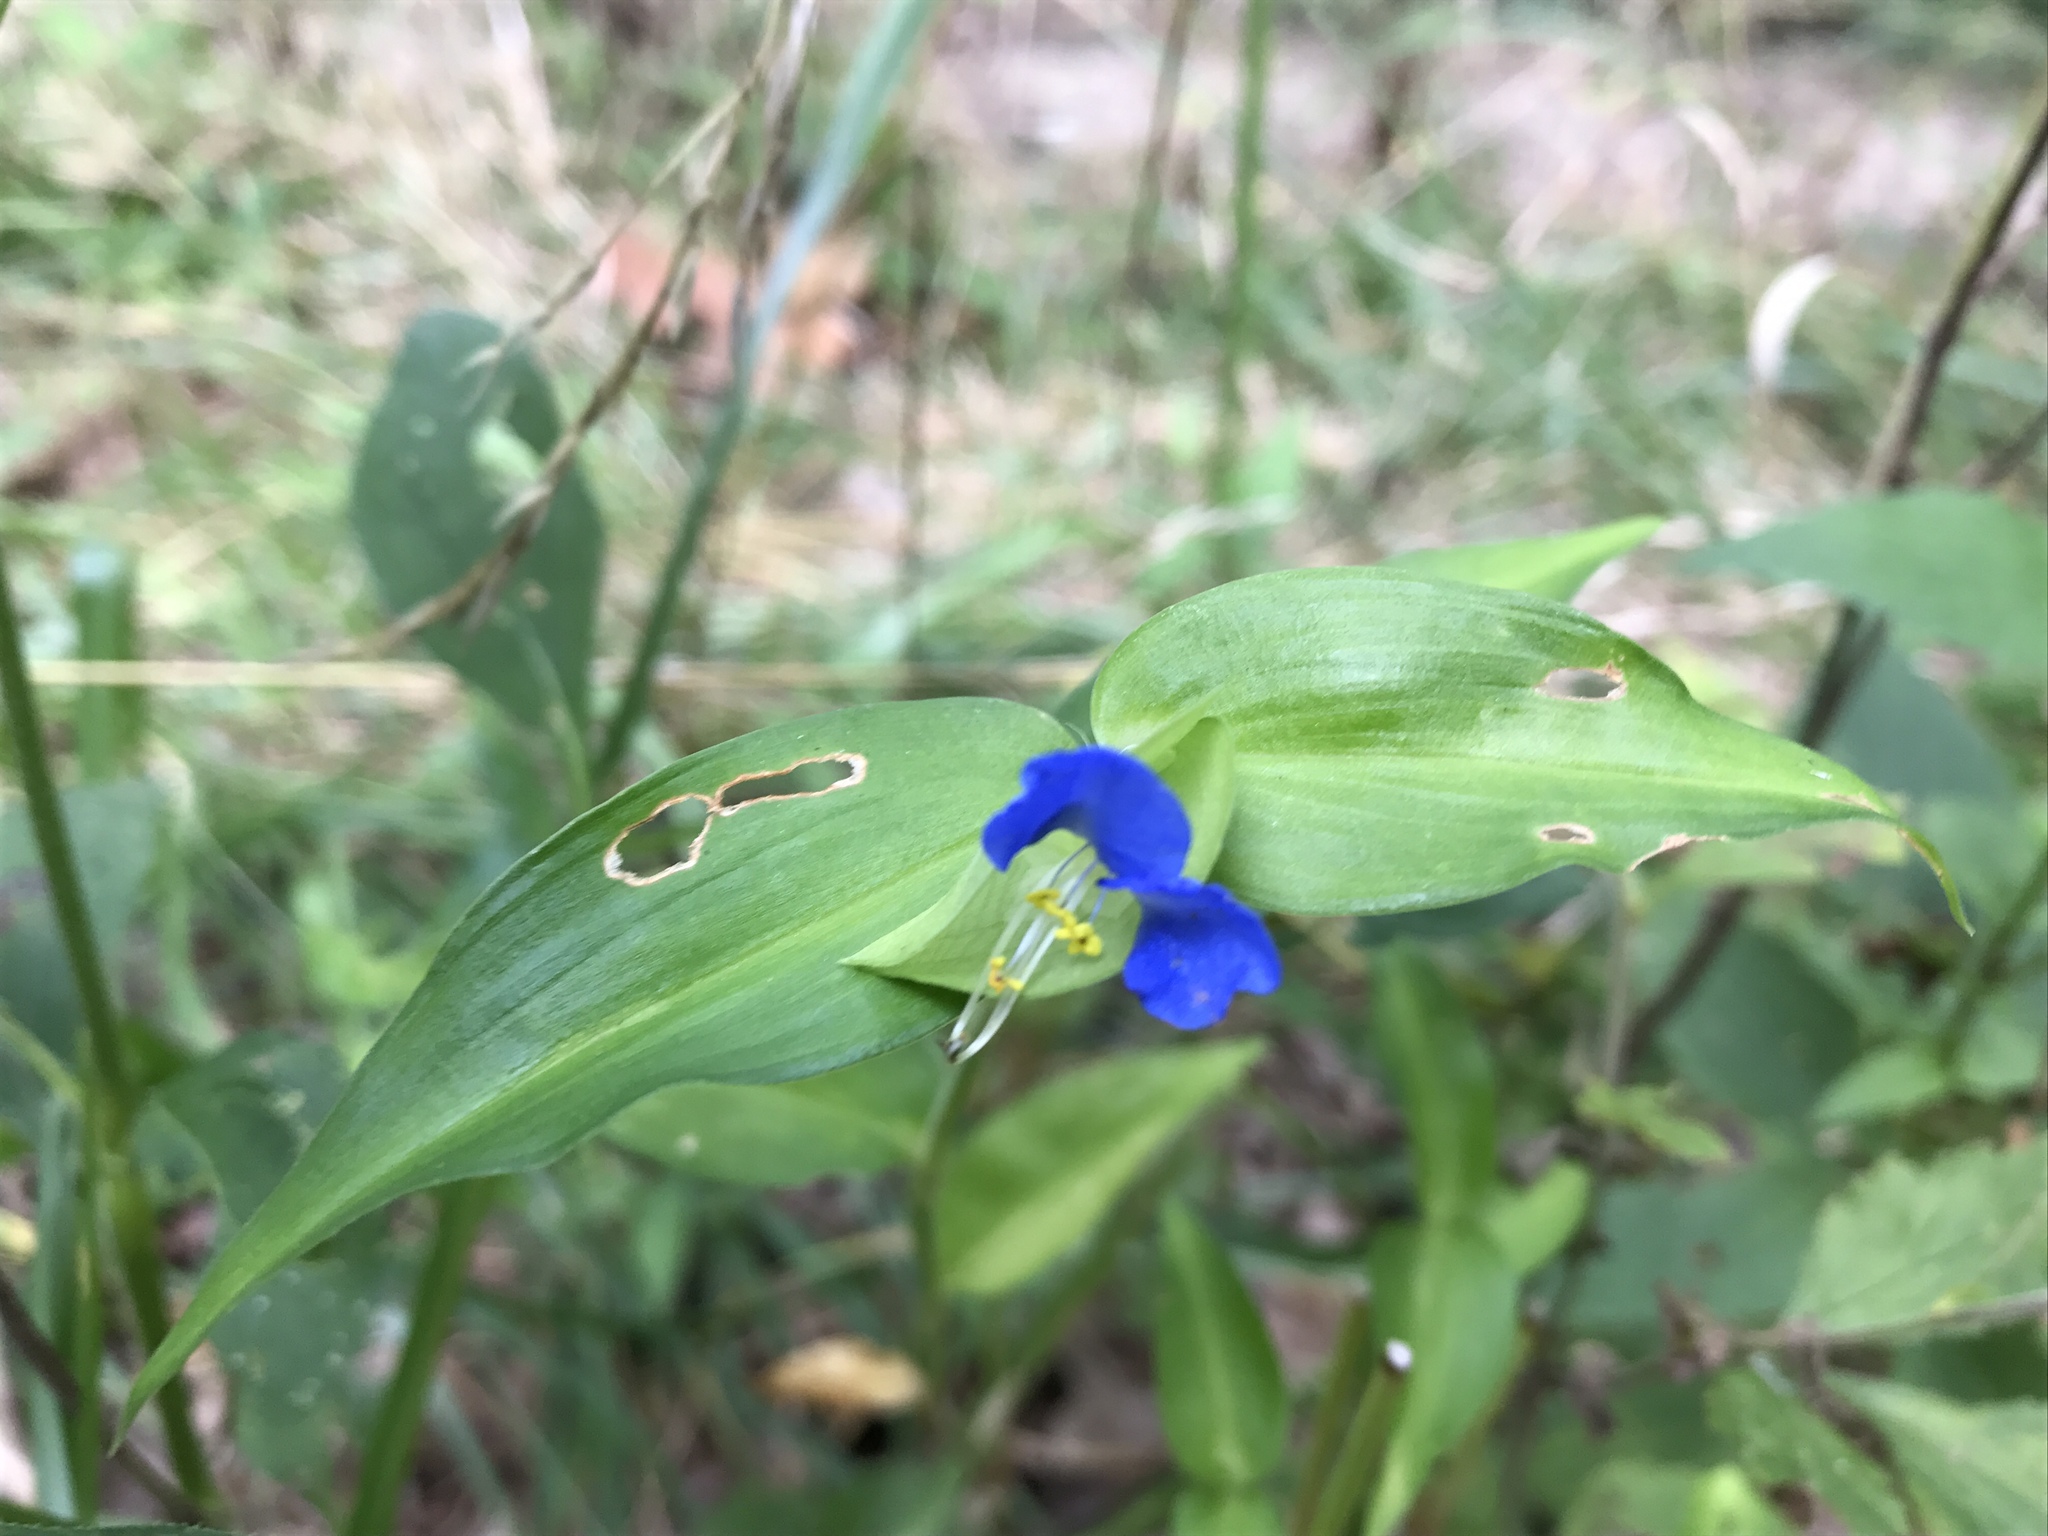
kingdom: Plantae
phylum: Tracheophyta
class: Liliopsida
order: Commelinales
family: Commelinaceae
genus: Commelina
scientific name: Commelina communis
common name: Asiatic dayflower
